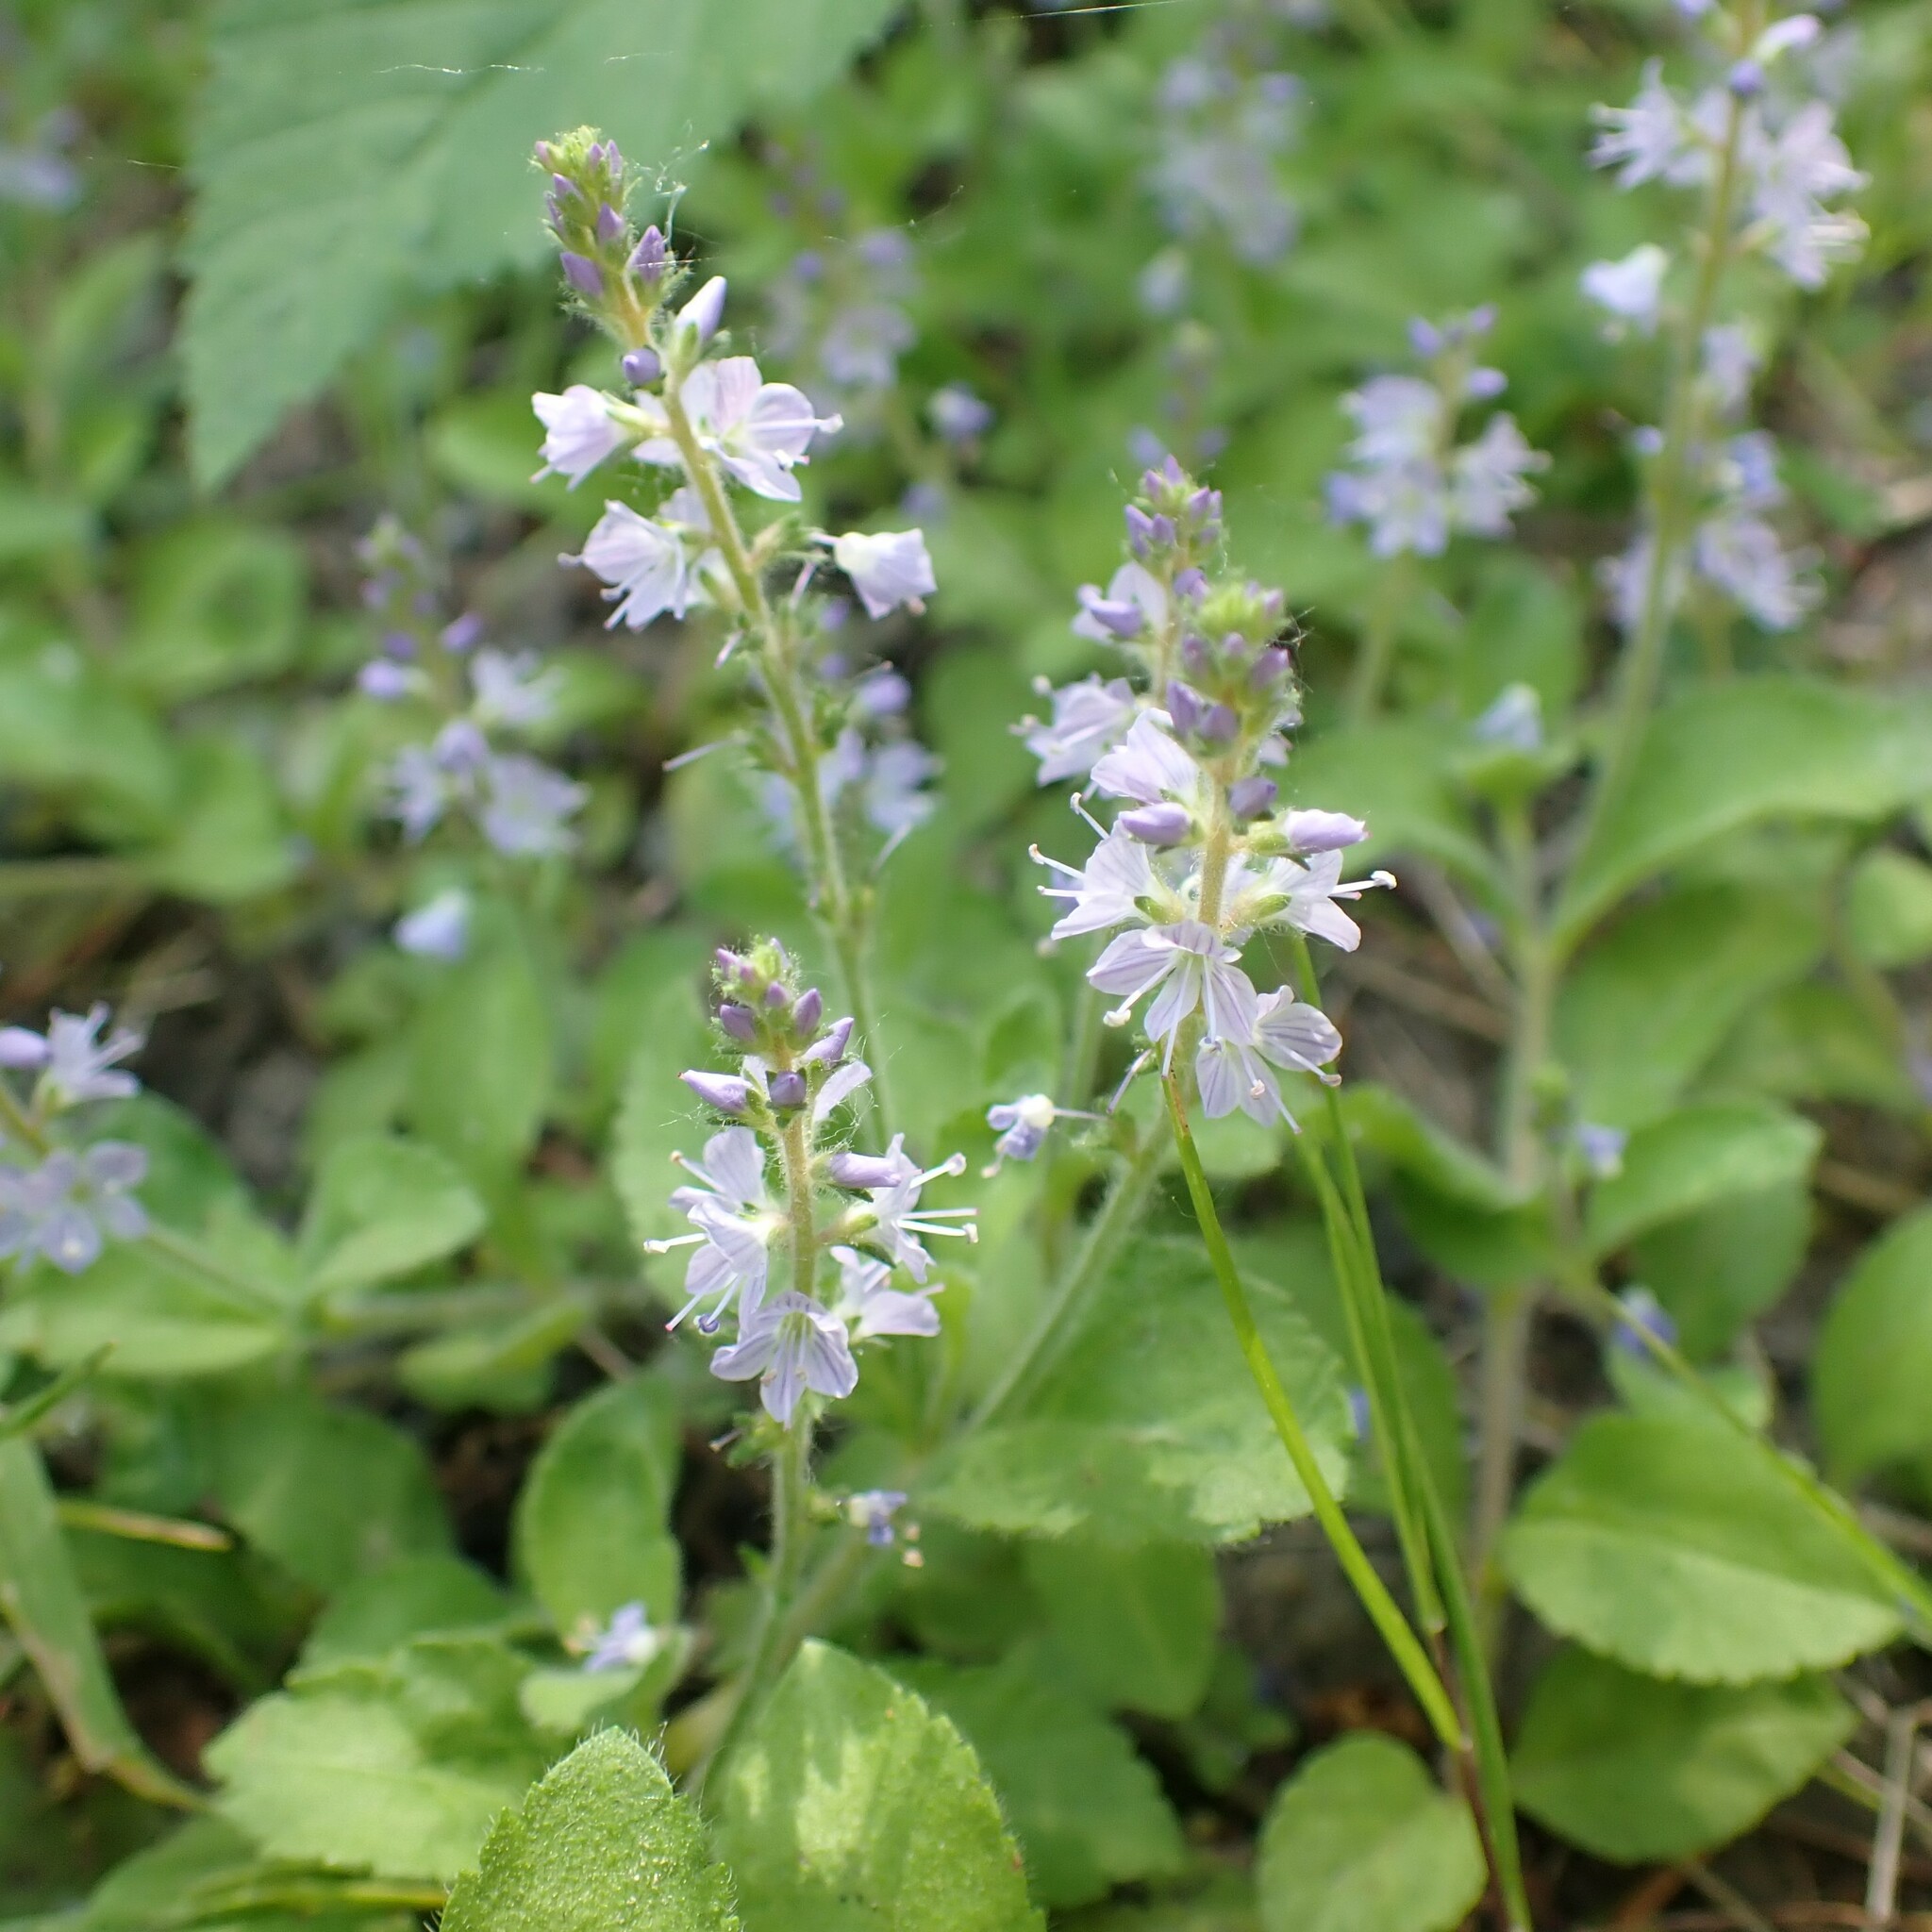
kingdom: Plantae
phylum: Tracheophyta
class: Magnoliopsida
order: Lamiales
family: Plantaginaceae
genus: Veronica
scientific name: Veronica officinalis
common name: Common speedwell
